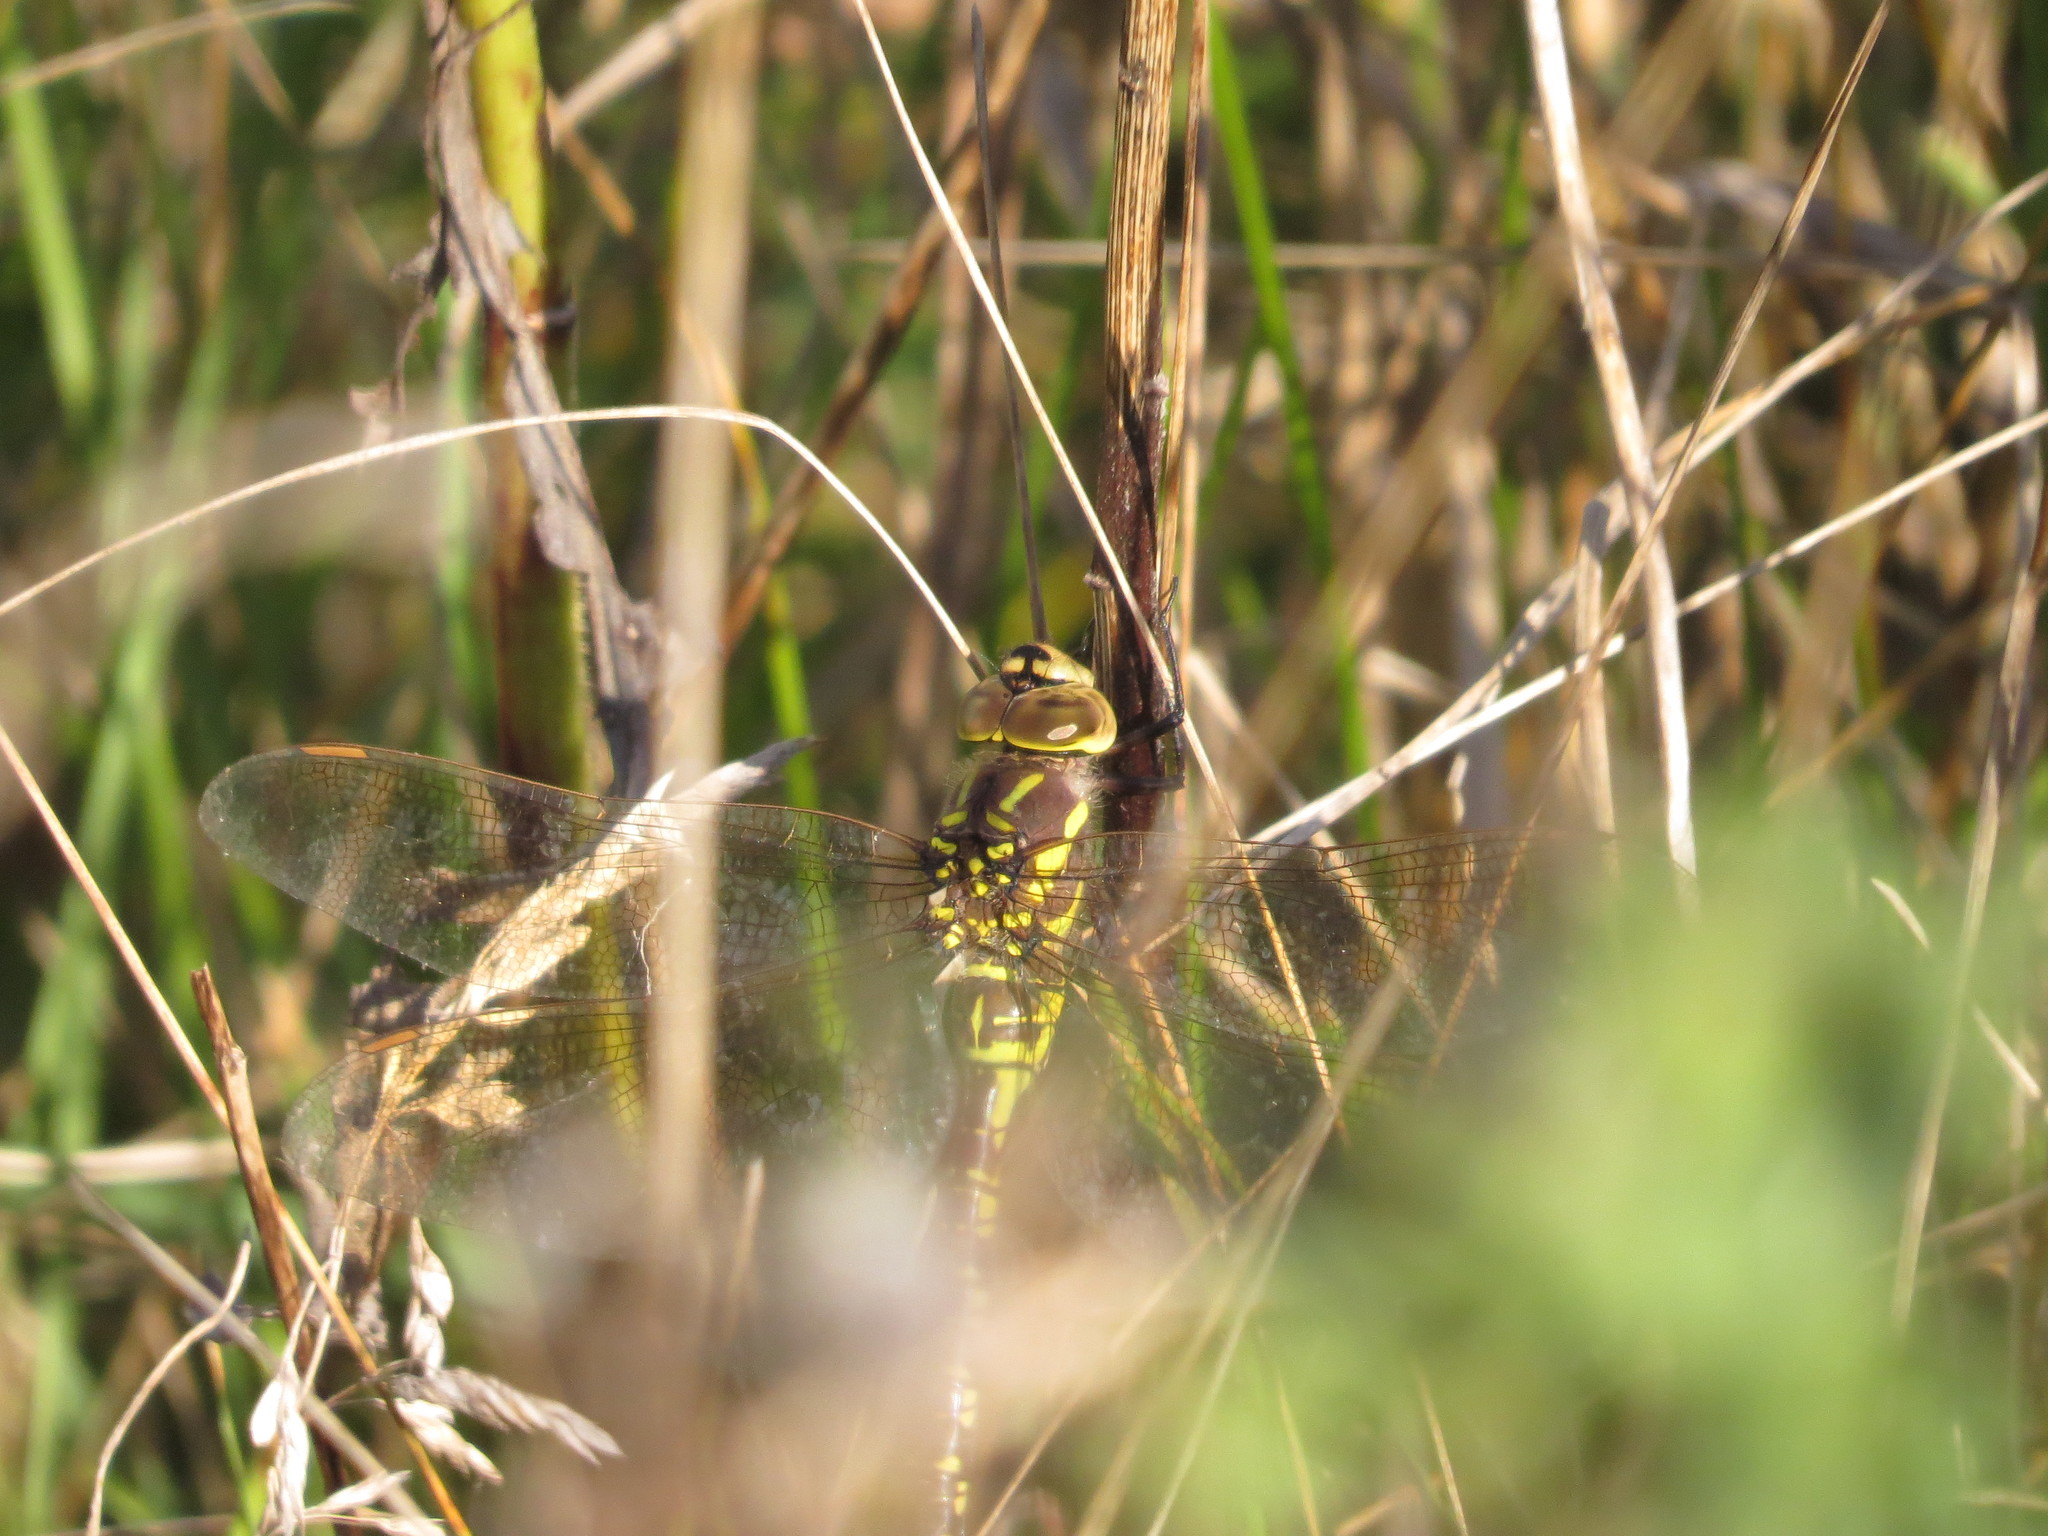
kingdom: Animalia
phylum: Arthropoda
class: Insecta
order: Odonata
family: Aeshnidae
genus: Aeshna
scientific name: Aeshna constricta
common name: Lance-tipped darner
